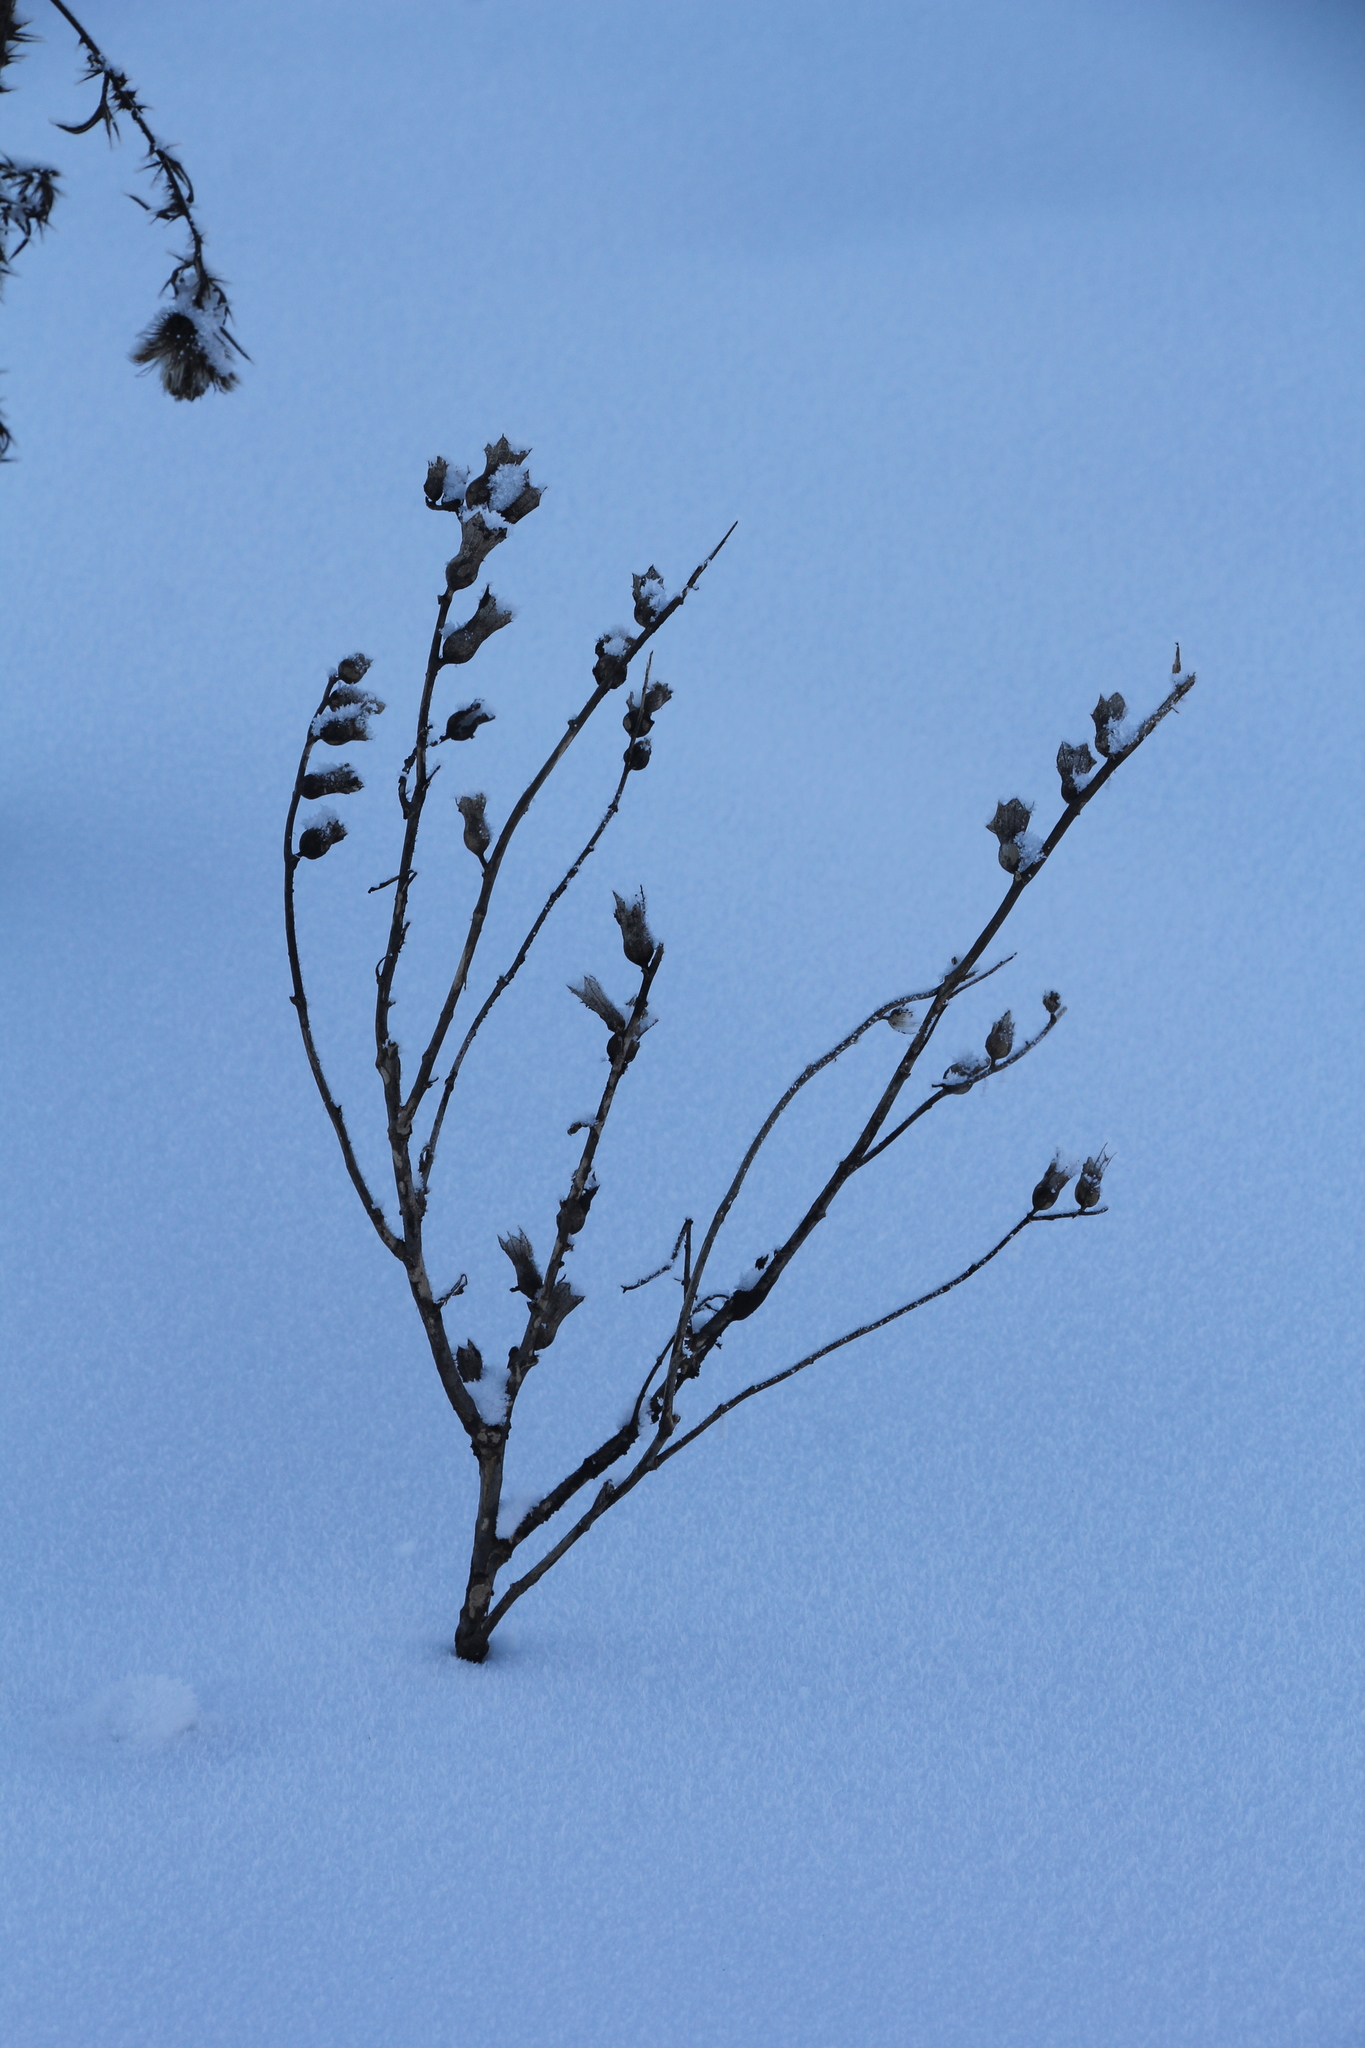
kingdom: Plantae
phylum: Tracheophyta
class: Magnoliopsida
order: Solanales
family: Solanaceae
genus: Hyoscyamus
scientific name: Hyoscyamus niger
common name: Henbane
